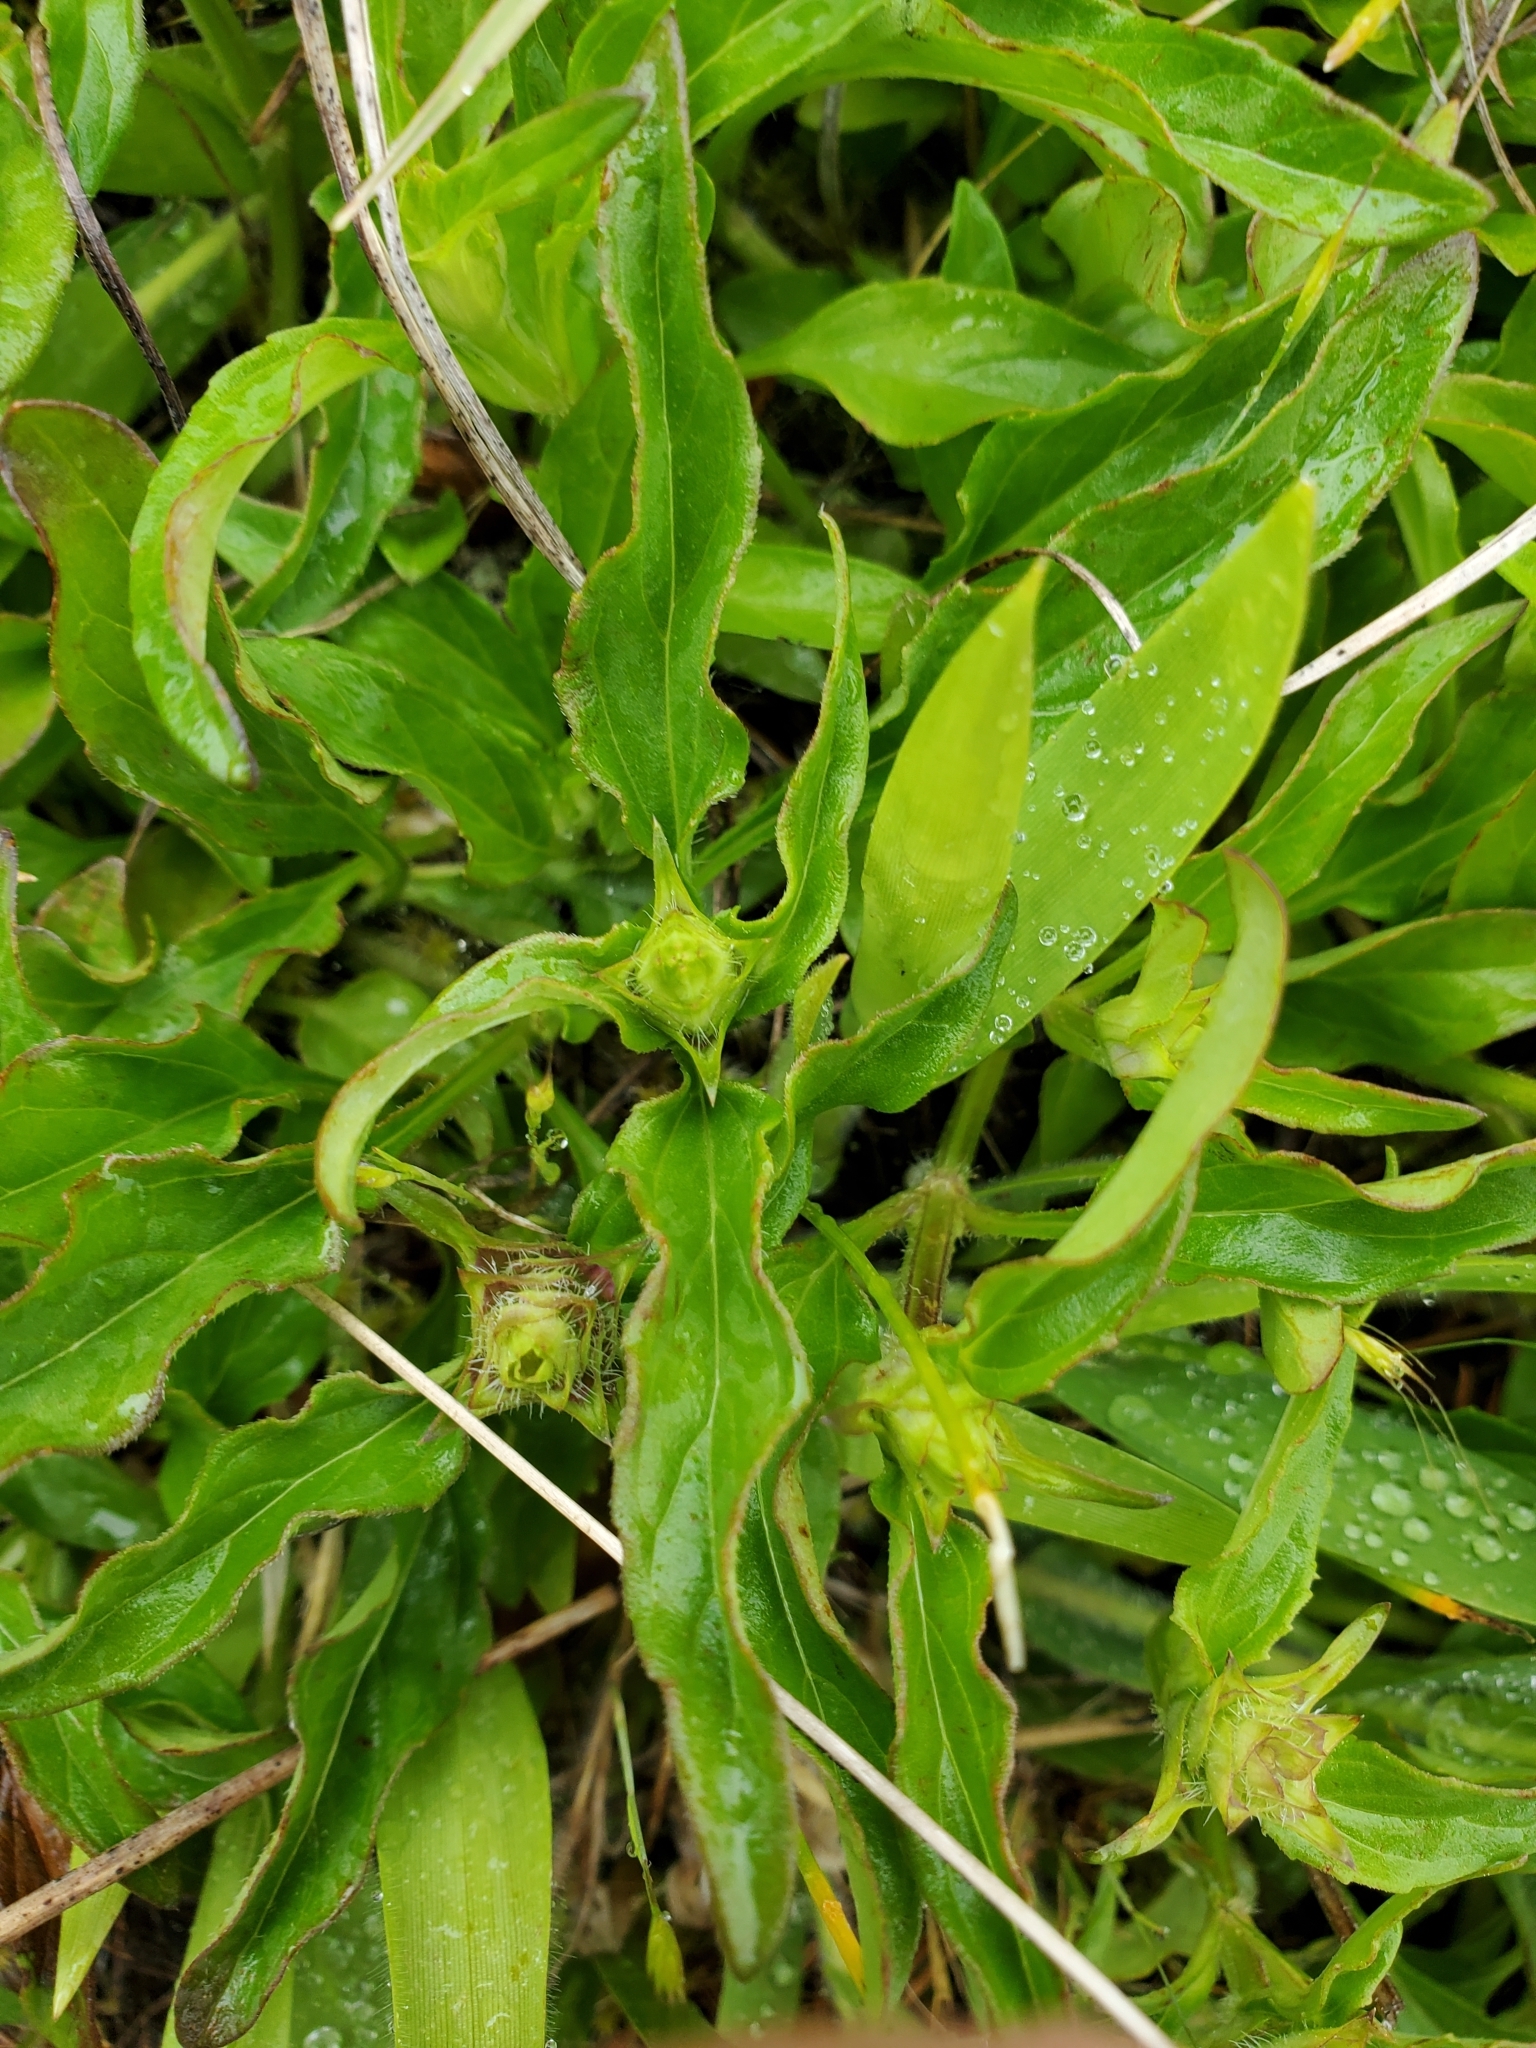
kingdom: Plantae
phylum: Tracheophyta
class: Magnoliopsida
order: Lamiales
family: Lamiaceae
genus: Prunella
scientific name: Prunella vulgaris
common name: Heal-all
